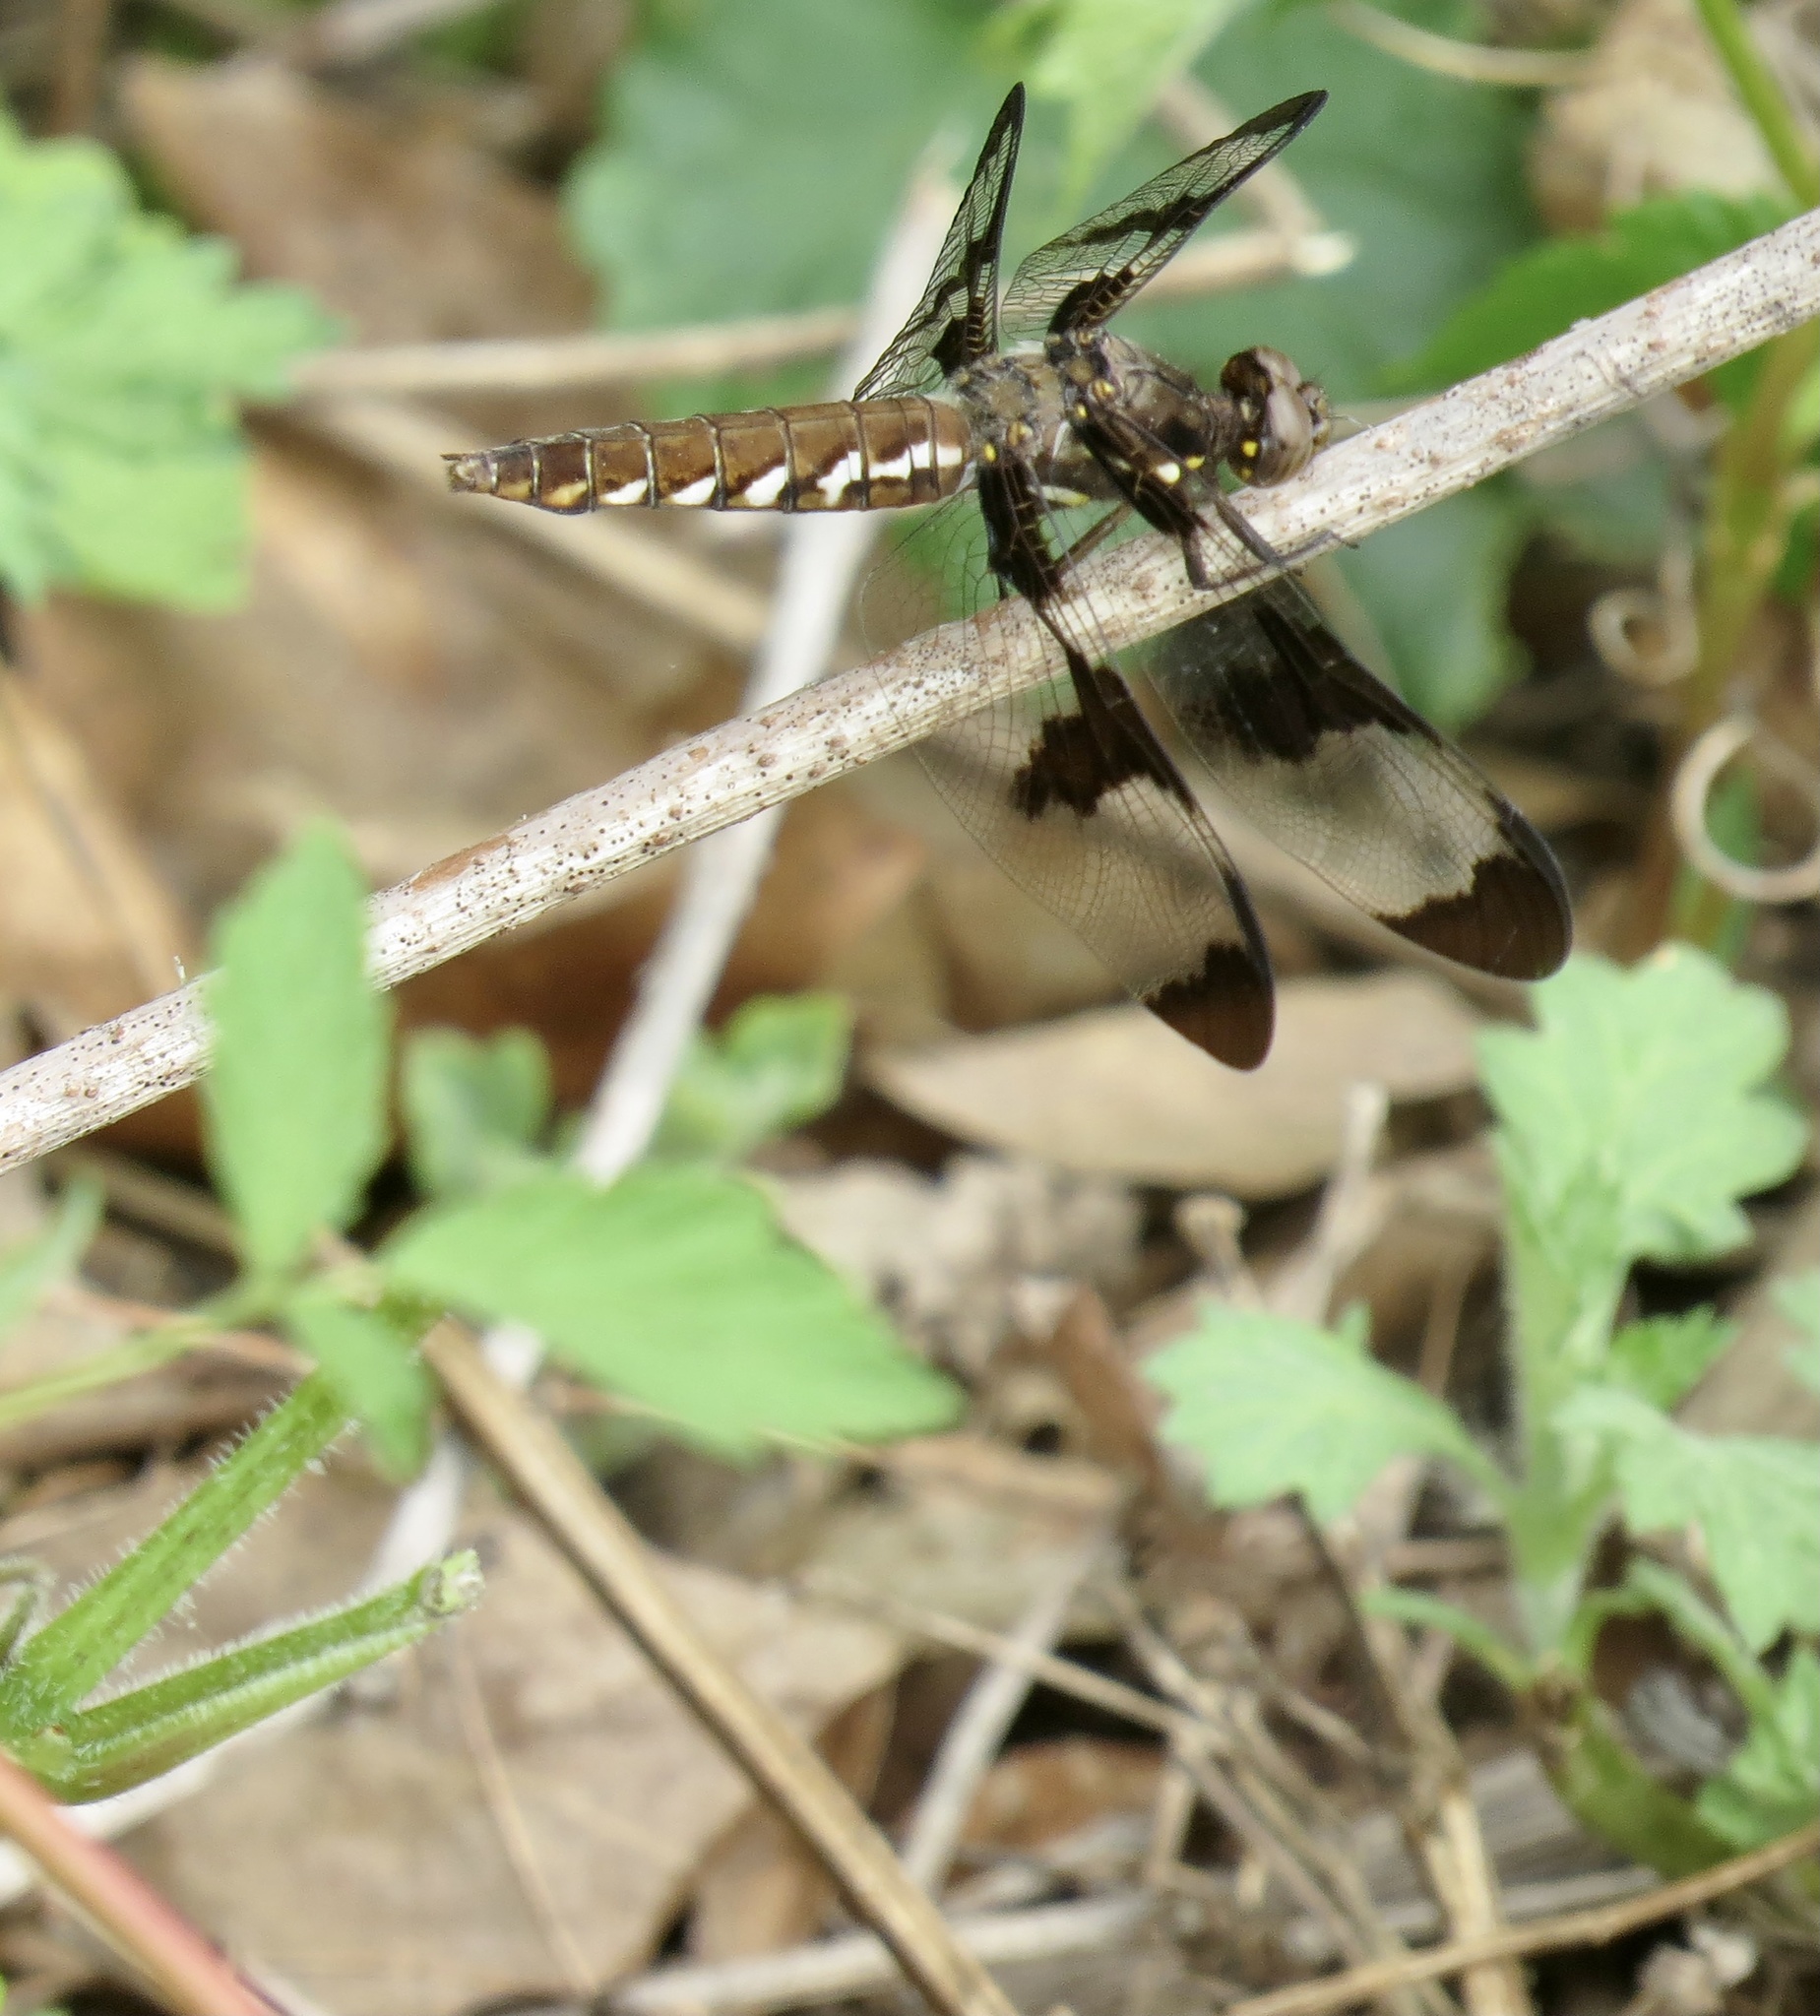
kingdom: Animalia
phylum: Arthropoda
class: Insecta
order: Odonata
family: Libellulidae
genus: Plathemis
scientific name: Plathemis lydia
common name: Common whitetail
